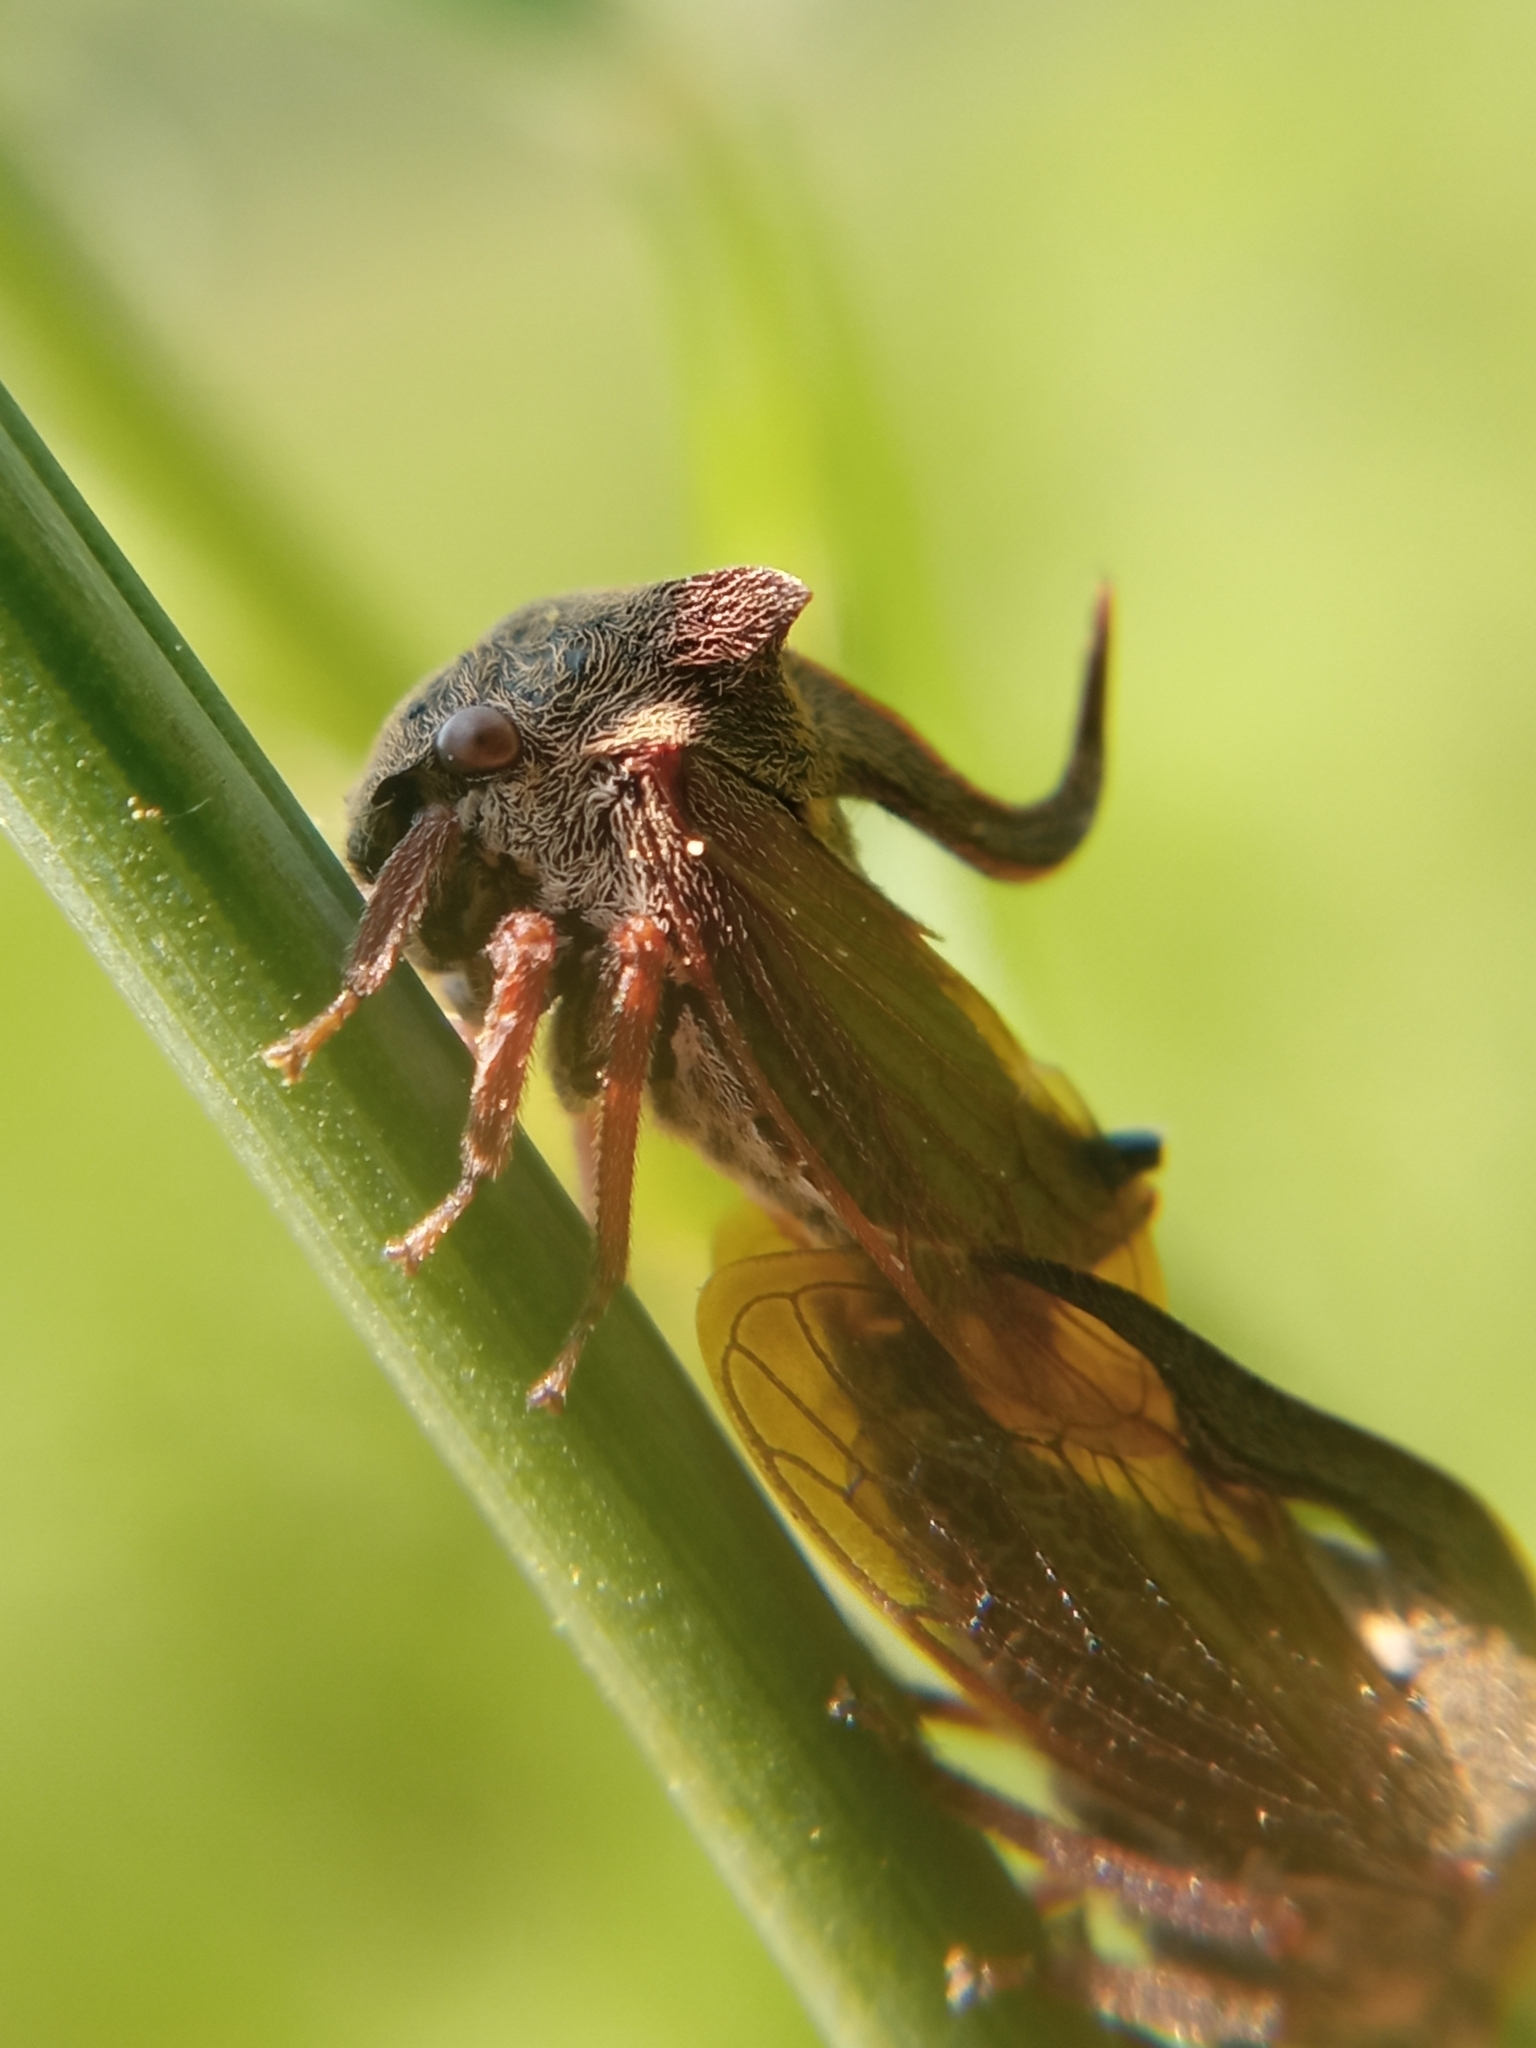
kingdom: Animalia
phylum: Arthropoda
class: Insecta
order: Hemiptera
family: Membracidae
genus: Centrotus
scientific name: Centrotus cornuta
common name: Treehopper
